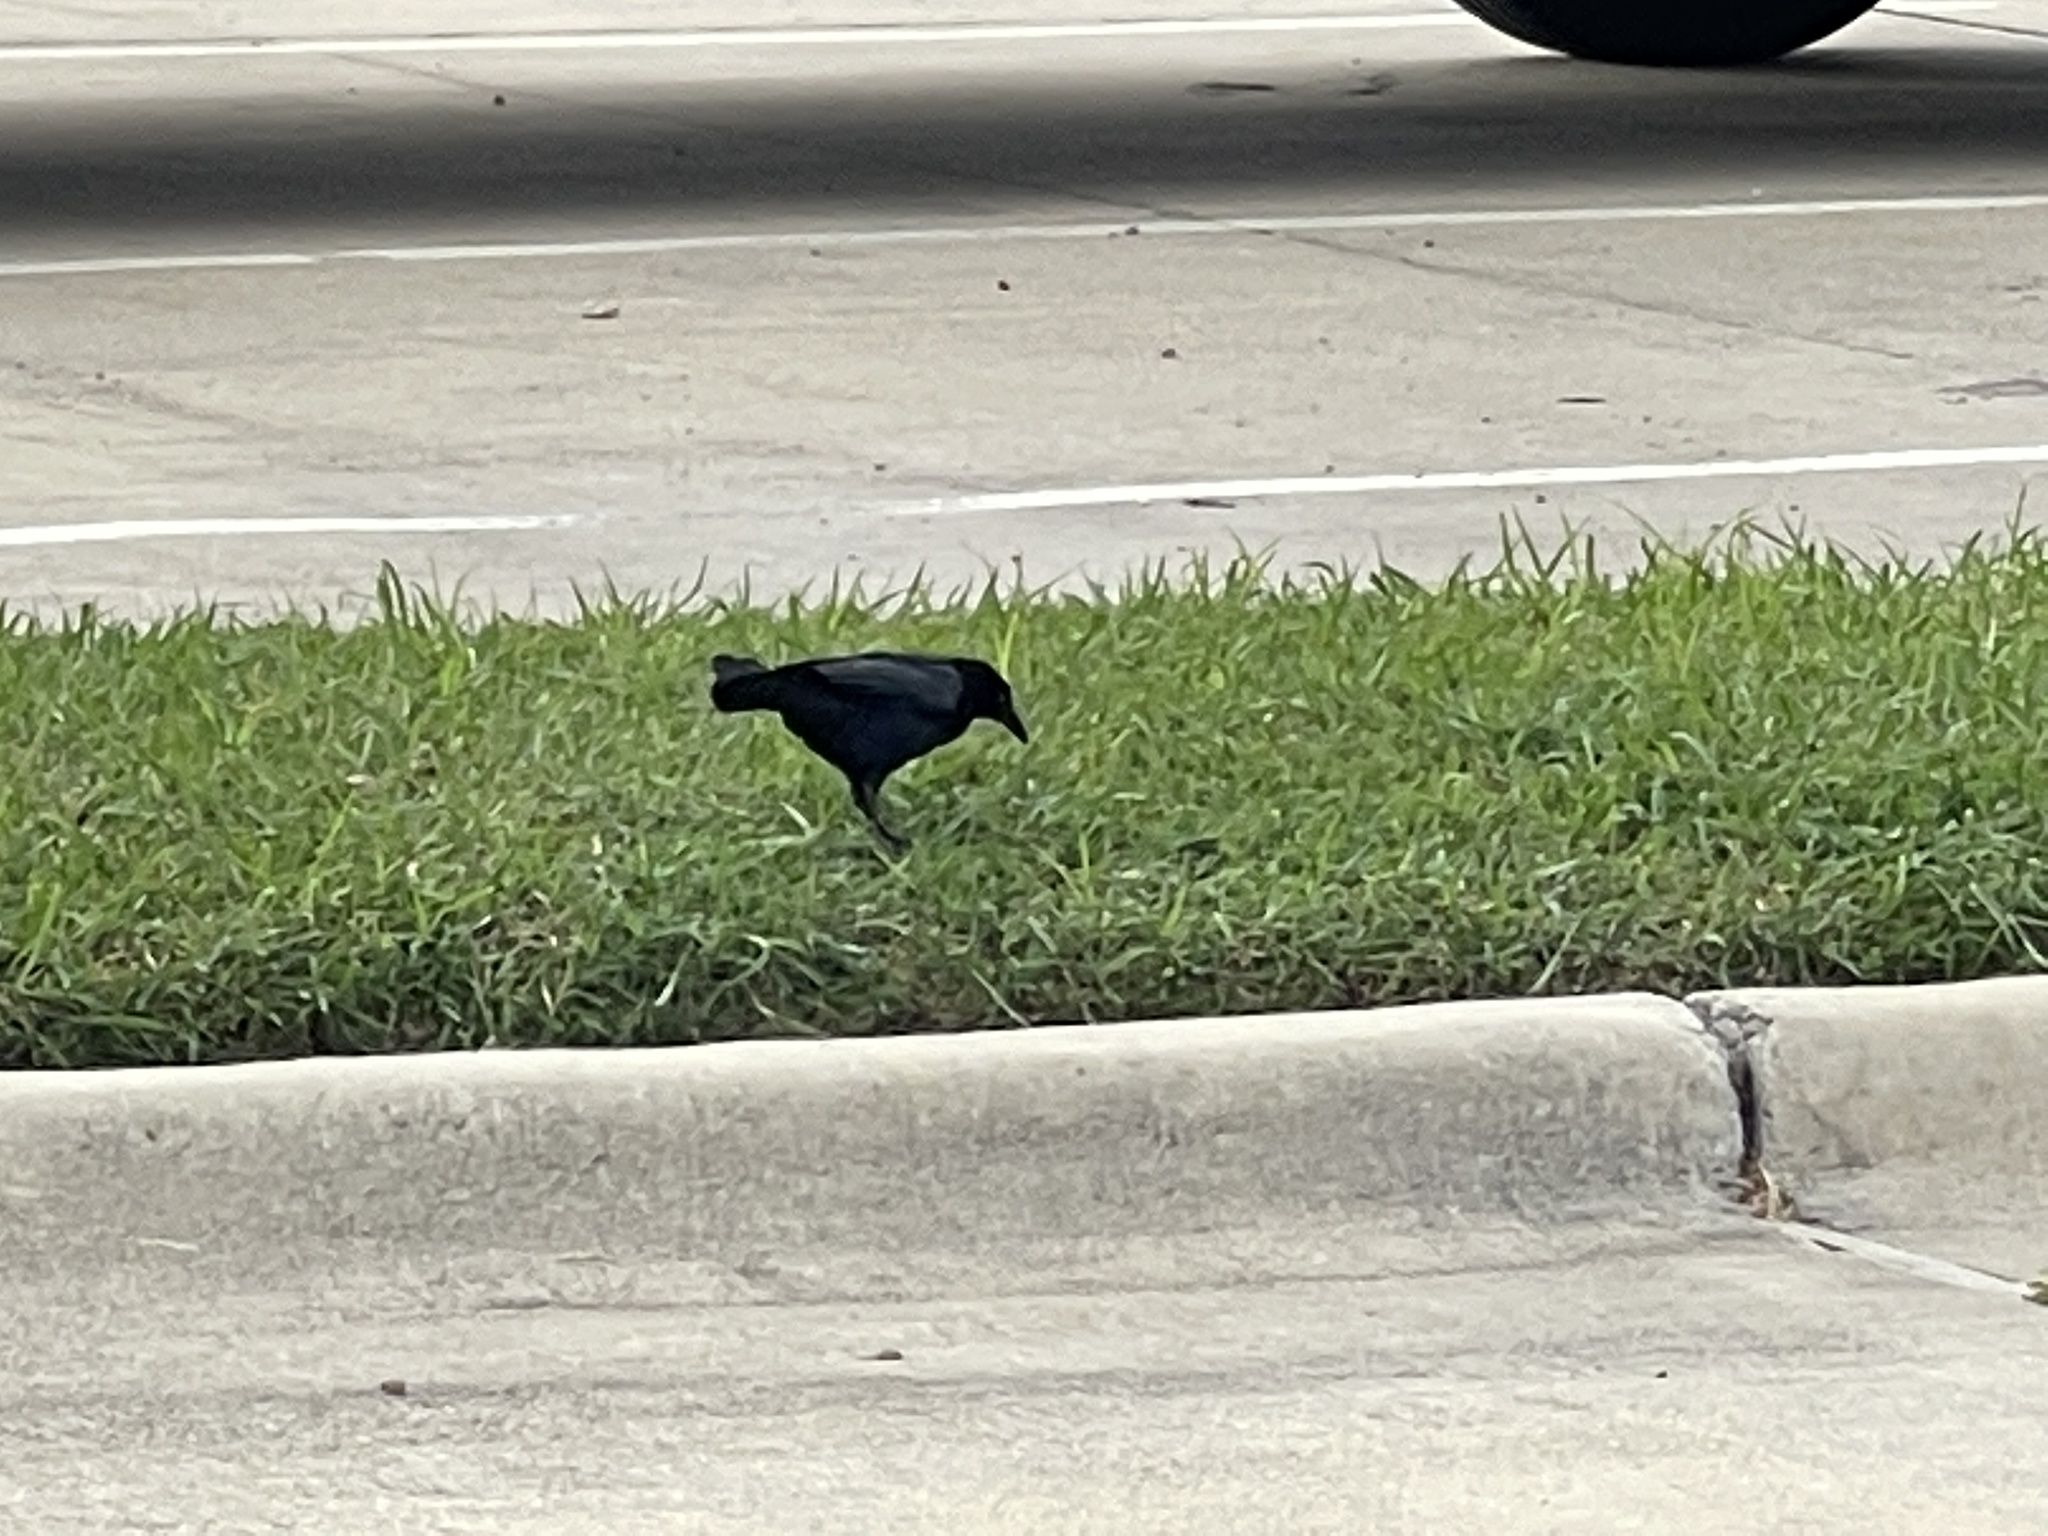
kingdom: Animalia
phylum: Chordata
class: Aves
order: Passeriformes
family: Icteridae
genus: Quiscalus
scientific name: Quiscalus mexicanus
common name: Great-tailed grackle
